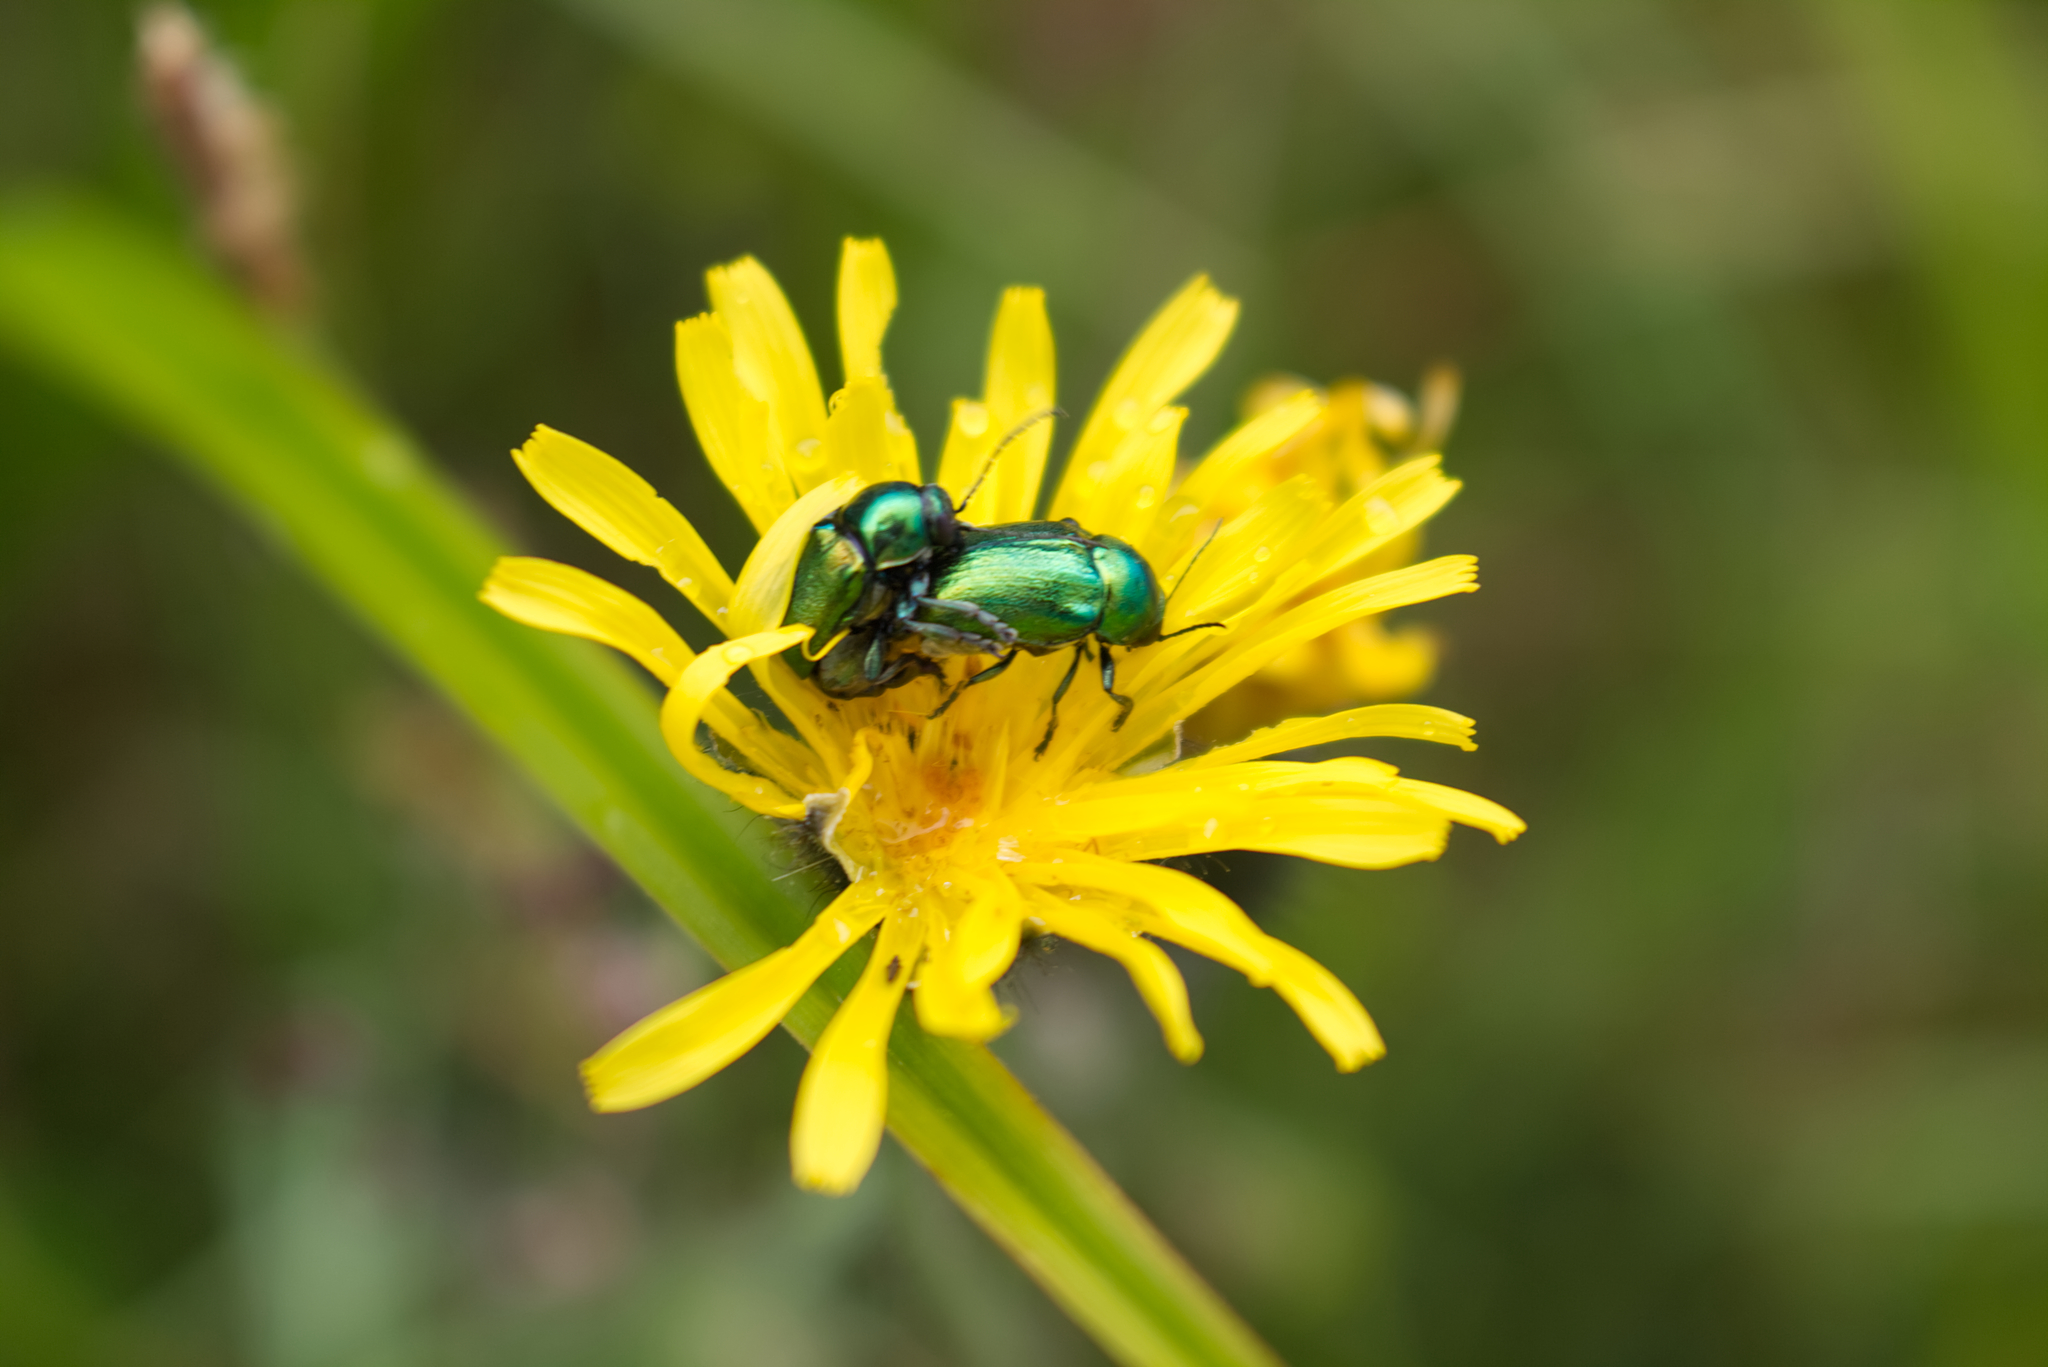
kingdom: Animalia
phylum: Arthropoda
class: Insecta
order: Coleoptera
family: Chrysomelidae
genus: Cryptocephalus
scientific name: Cryptocephalus
